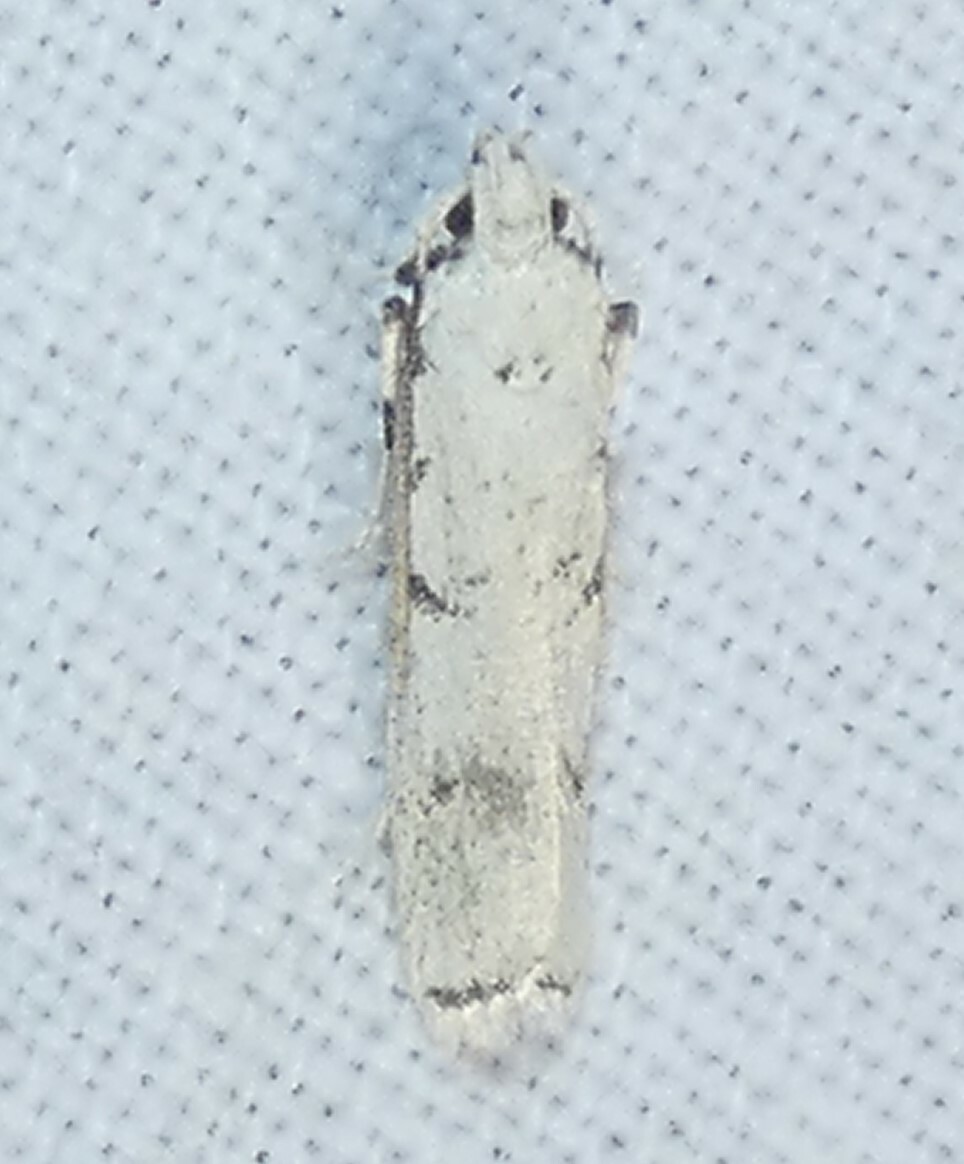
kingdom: Animalia
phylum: Arthropoda
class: Insecta
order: Lepidoptera
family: Autostichidae
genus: Glyphidocera
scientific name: Glyphidocera lactiflosella
